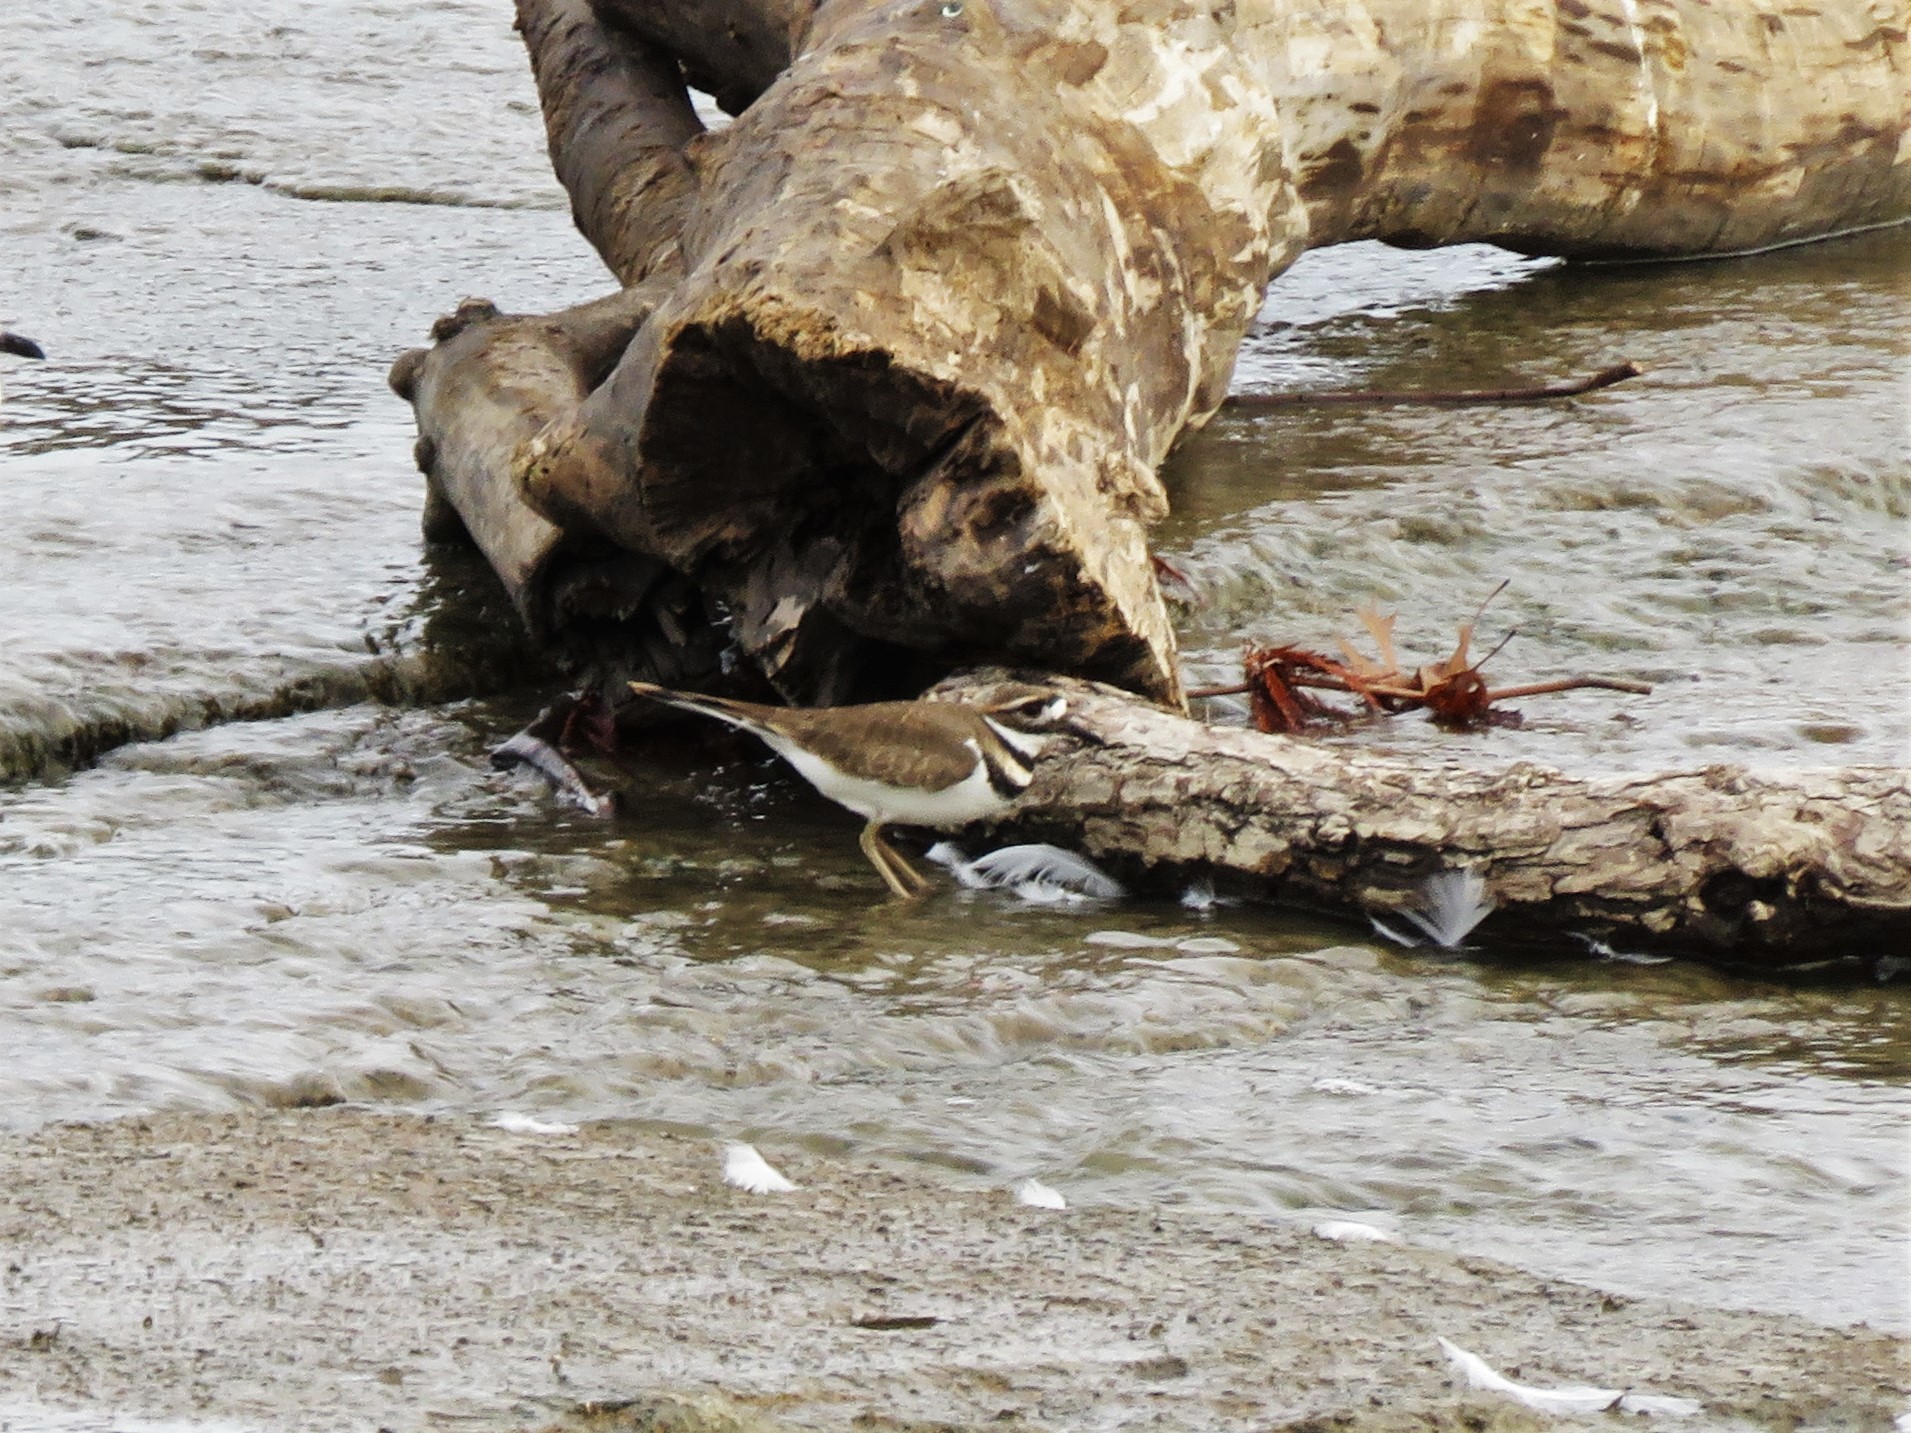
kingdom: Animalia
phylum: Chordata
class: Aves
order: Charadriiformes
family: Charadriidae
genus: Charadrius
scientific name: Charadrius vociferus
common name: Killdeer
